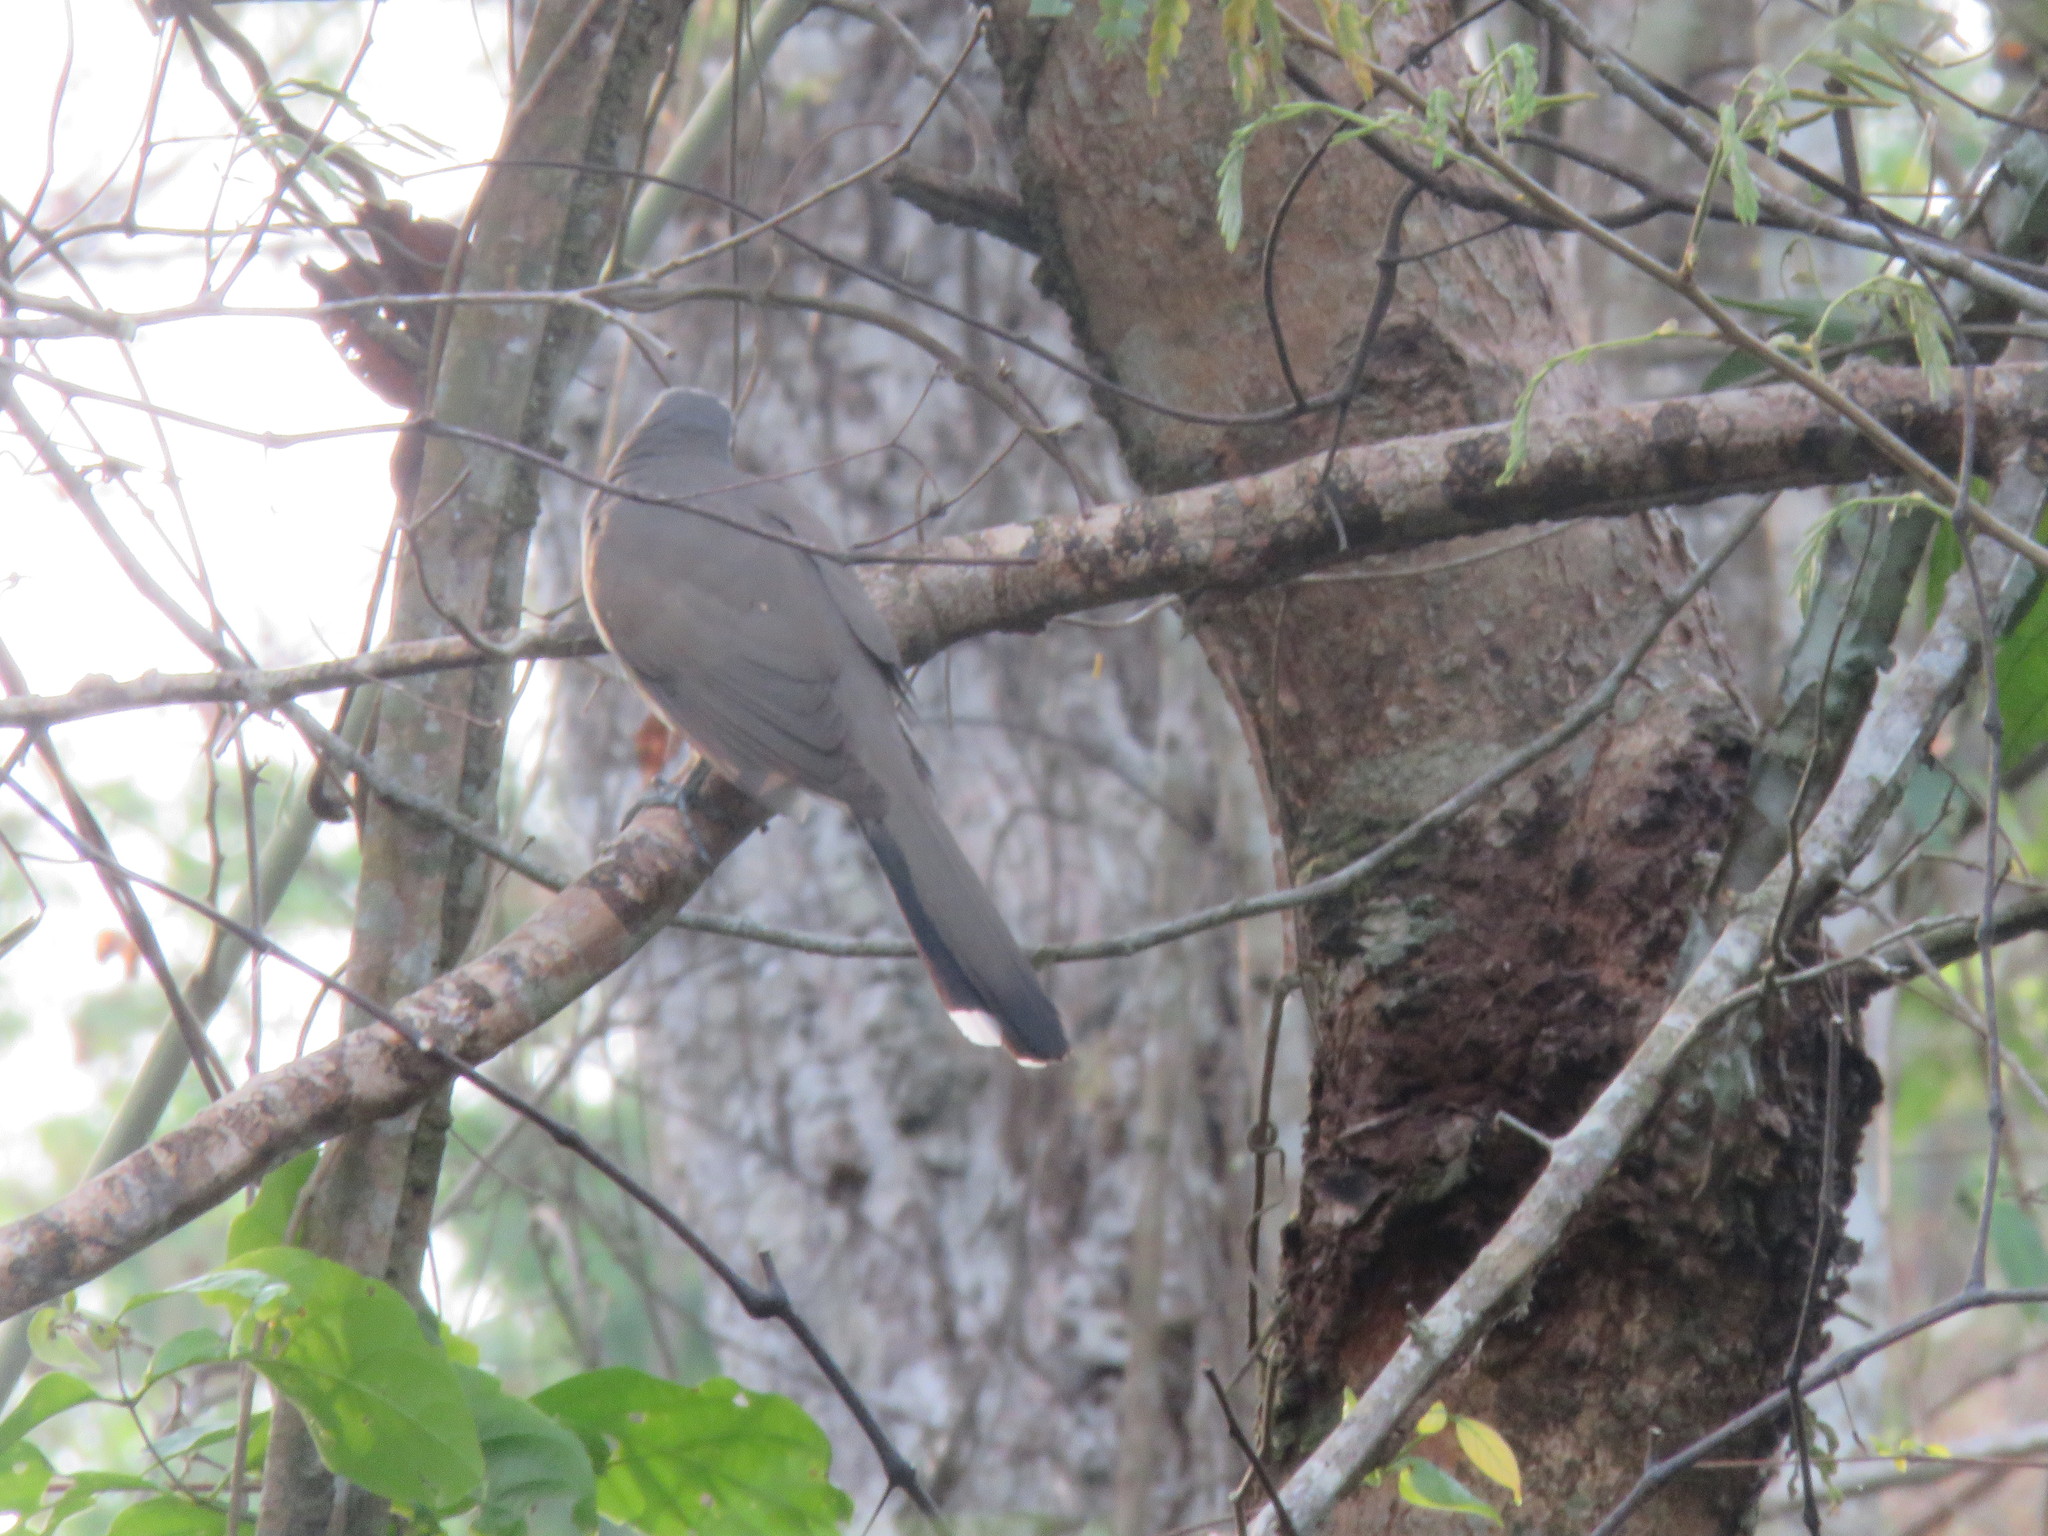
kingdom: Animalia
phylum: Chordata
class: Aves
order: Cuculiformes
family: Cuculidae
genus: Coccyzus
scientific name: Coccyzus melacoryphus
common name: Dark-billed cuckoo
